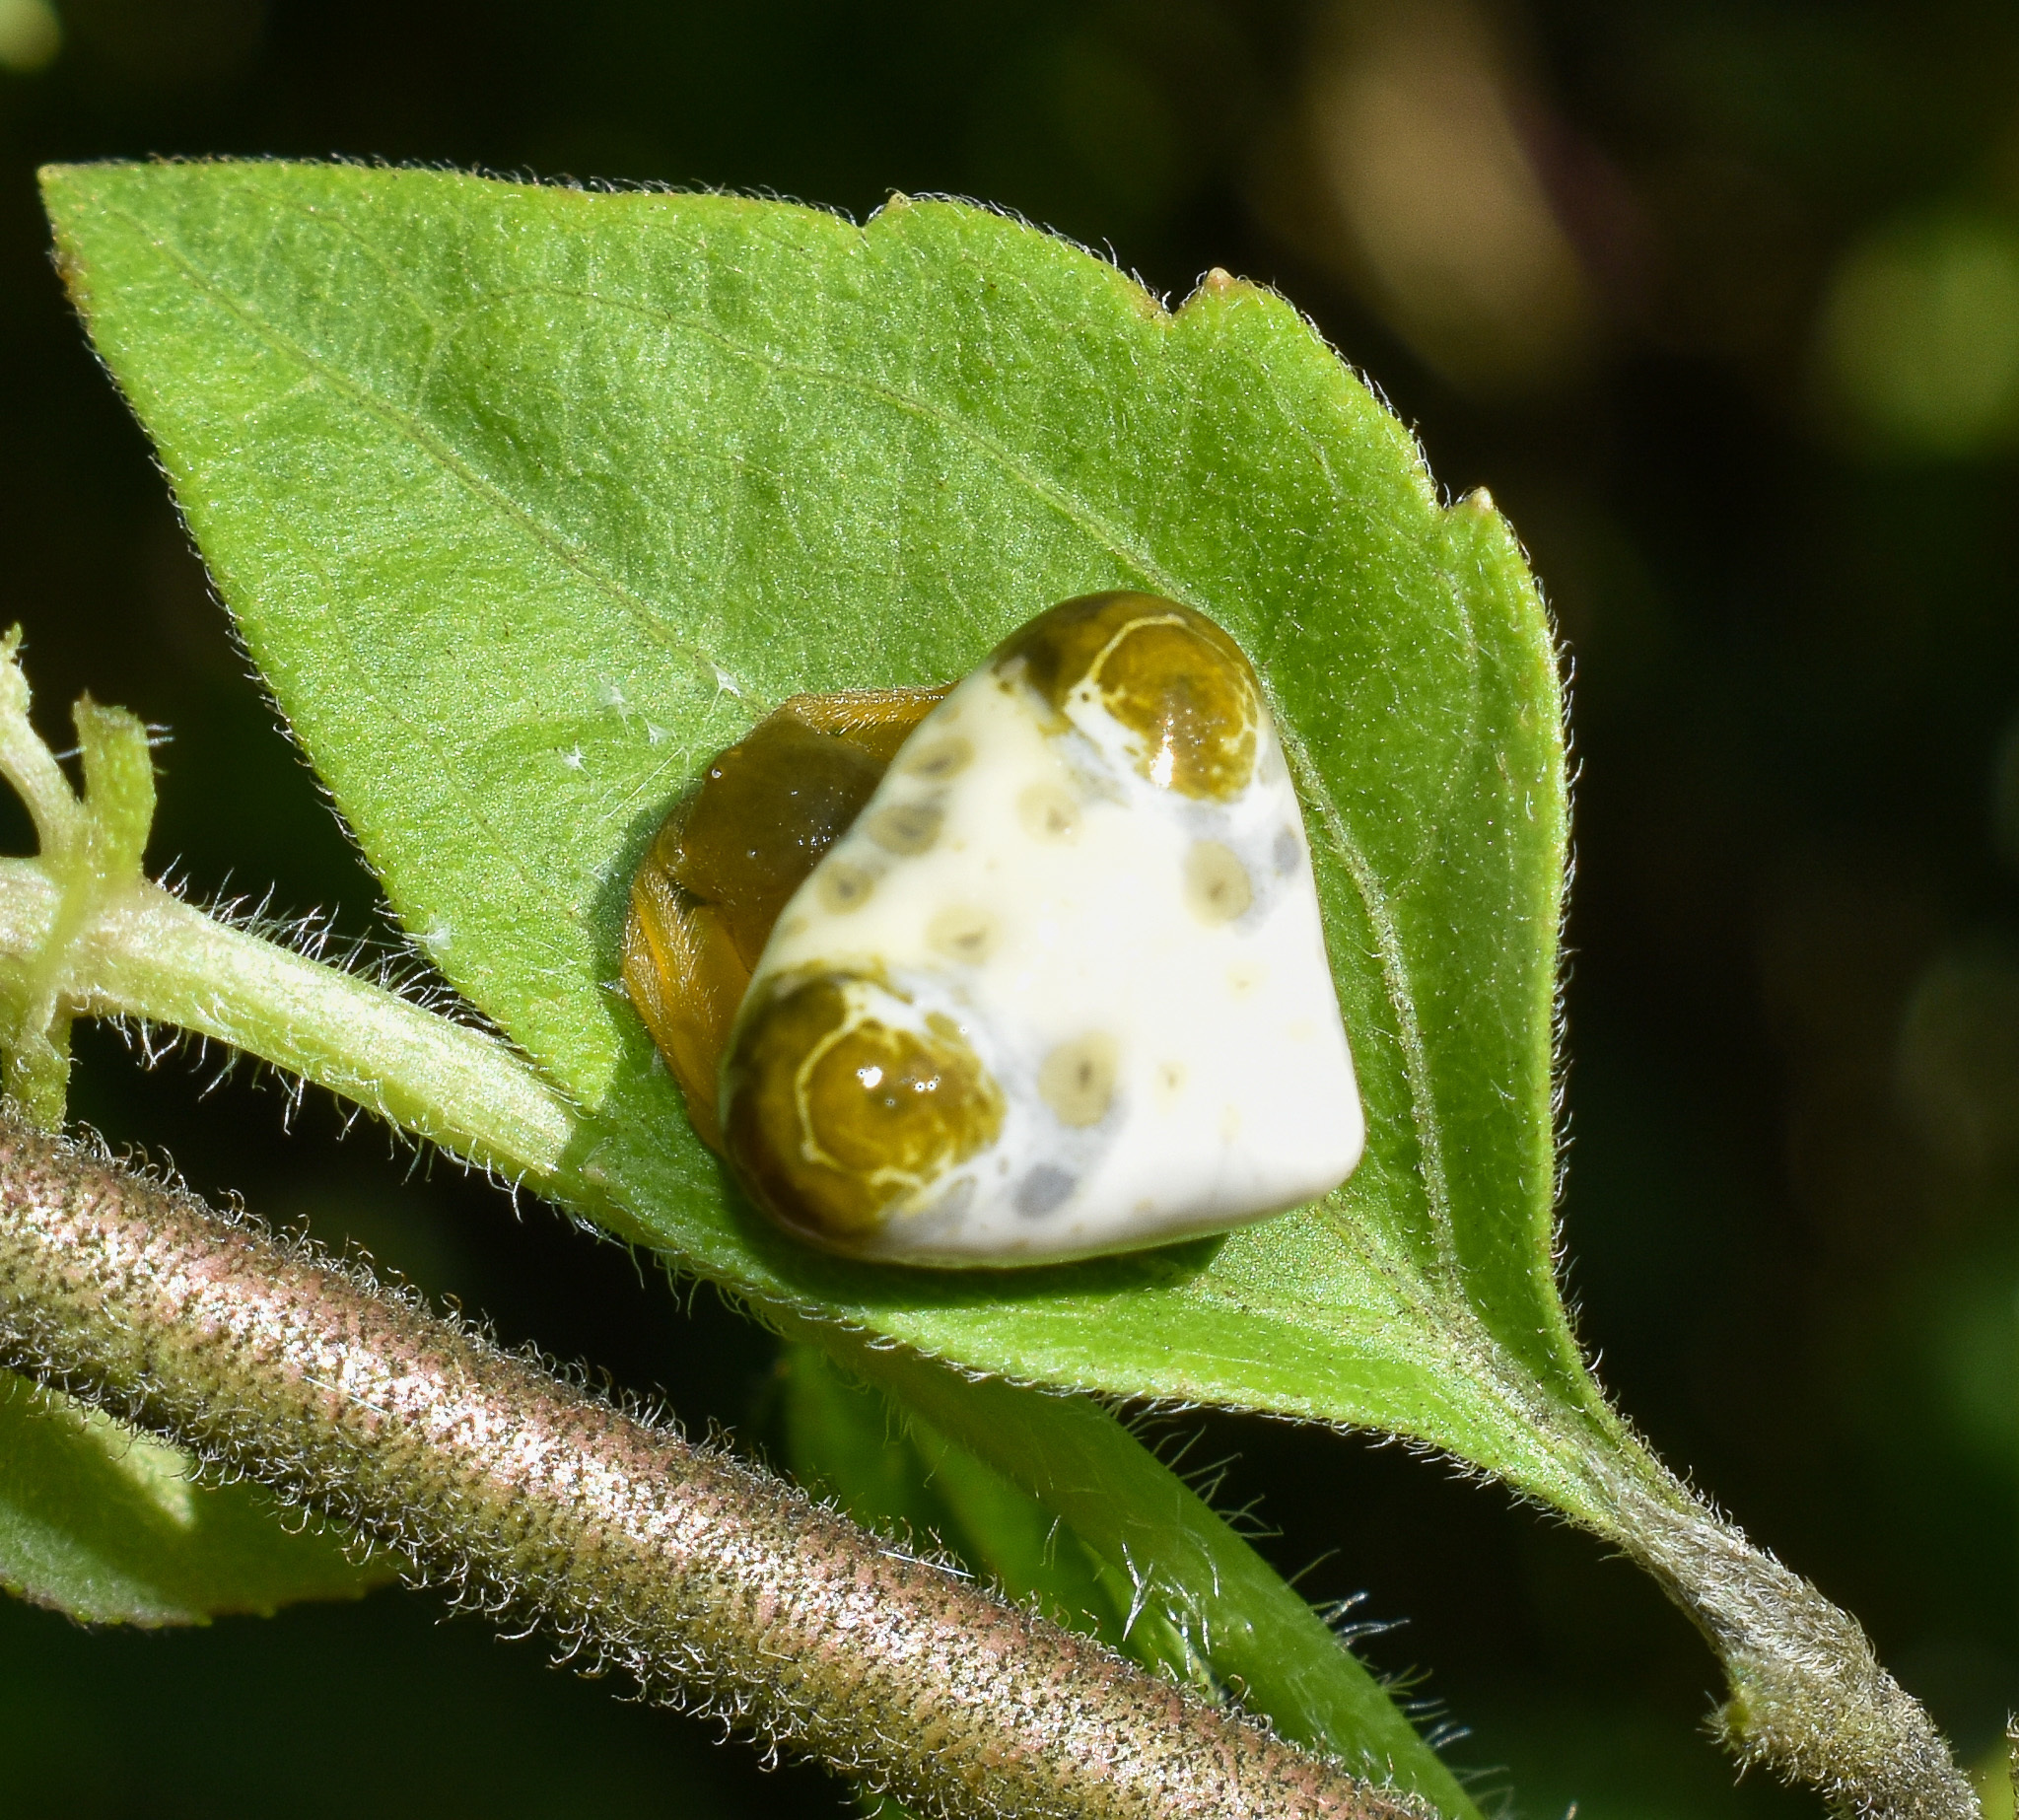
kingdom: Animalia
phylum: Arthropoda
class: Arachnida
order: Araneae
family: Araneidae
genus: Cyrtarachne
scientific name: Cyrtarachne bufo
